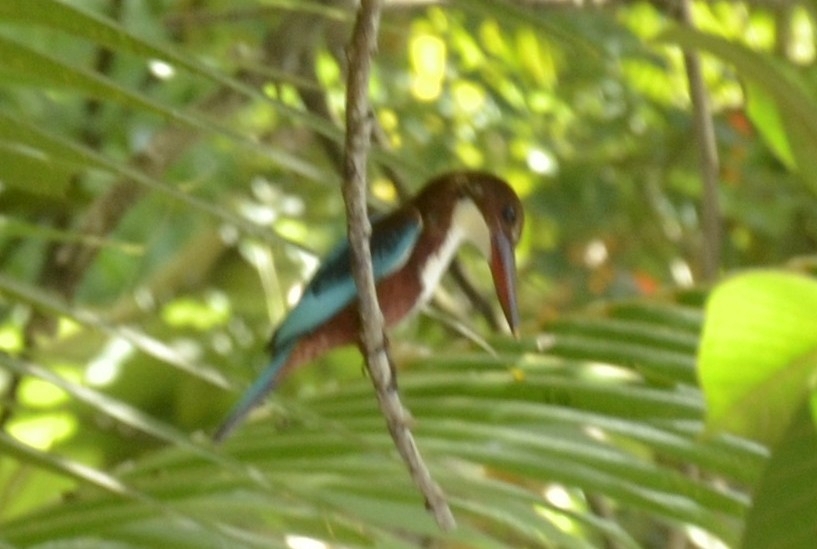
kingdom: Animalia
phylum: Chordata
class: Aves
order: Coraciiformes
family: Alcedinidae
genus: Halcyon
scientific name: Halcyon smyrnensis
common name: White-throated kingfisher
